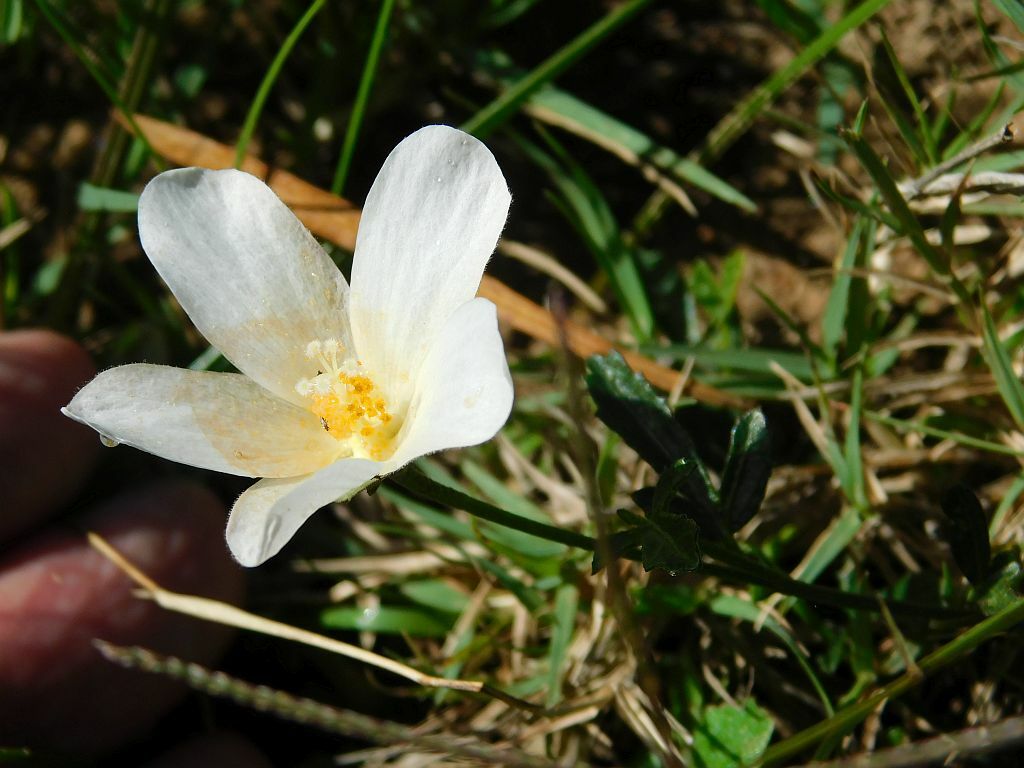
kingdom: Plantae
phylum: Tracheophyta
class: Magnoliopsida
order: Malvales
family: Malvaceae
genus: Hibiscus
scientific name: Hibiscus pusillus
